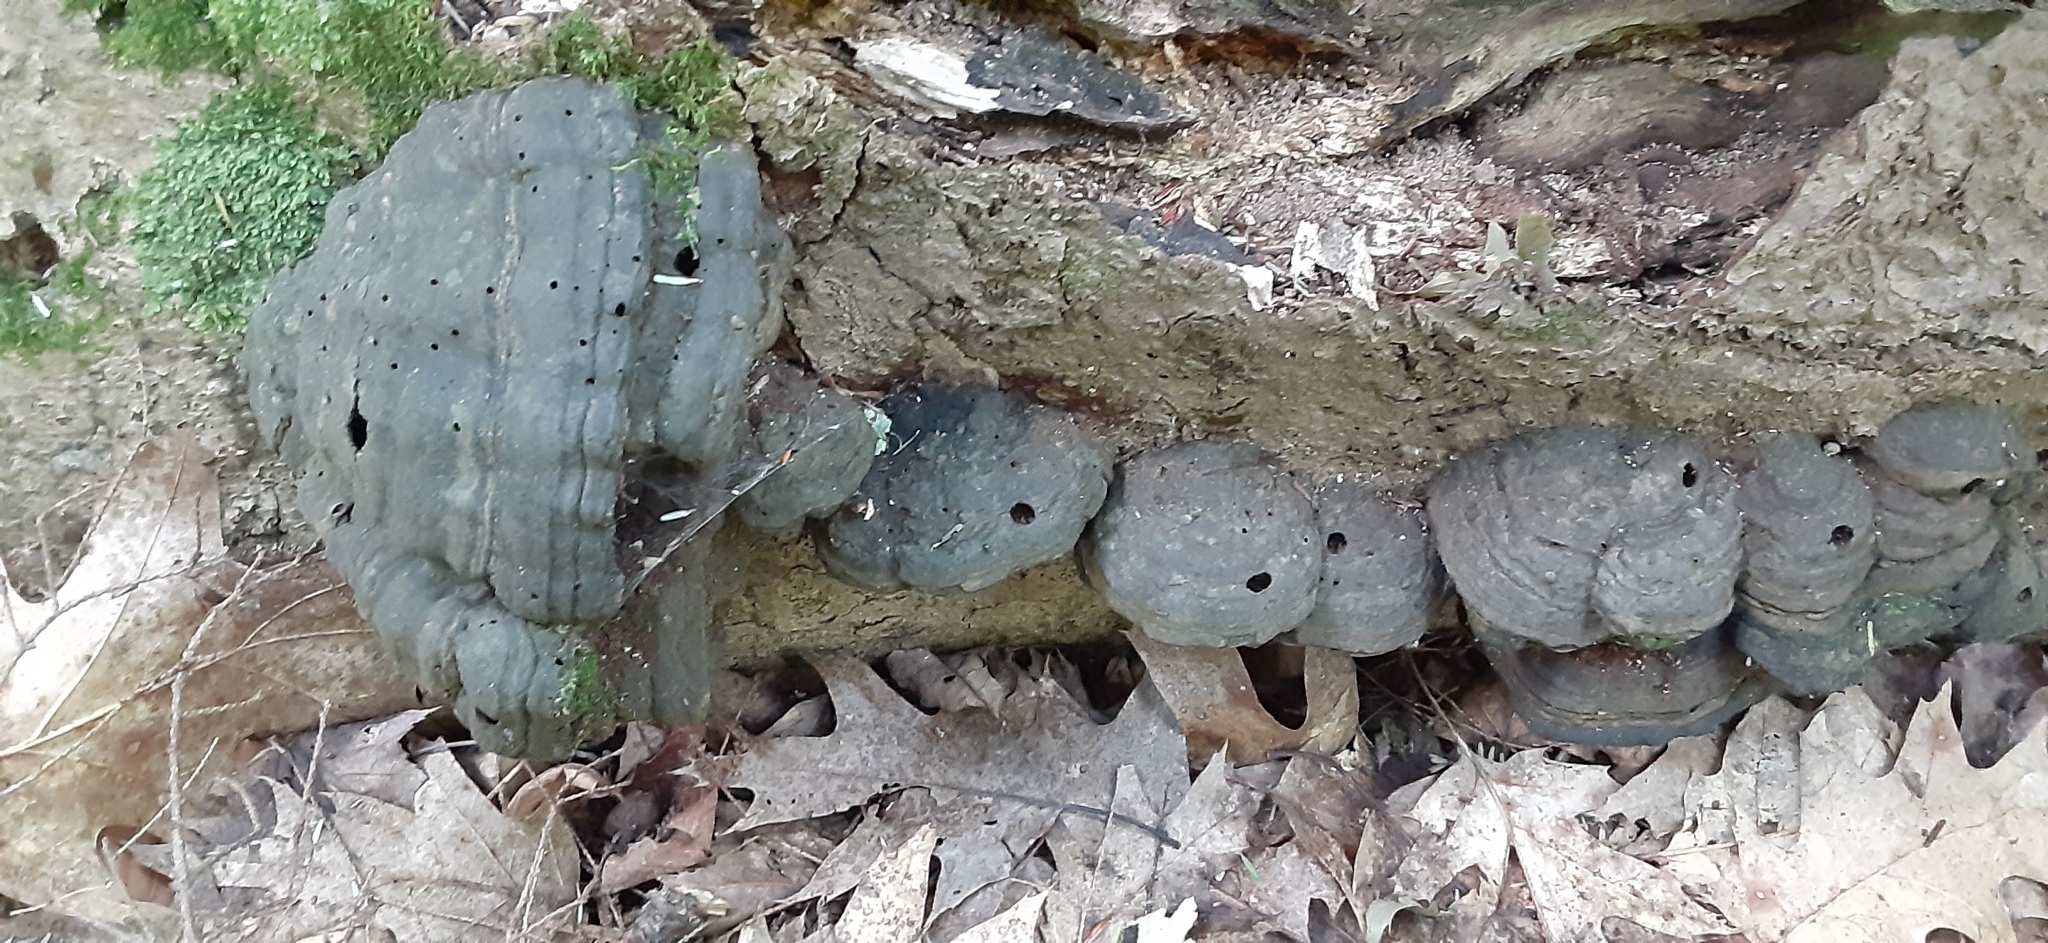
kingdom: Fungi
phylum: Basidiomycota
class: Agaricomycetes
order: Polyporales
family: Polyporaceae
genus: Fomes
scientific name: Fomes fomentarius
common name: Hoof fungus
